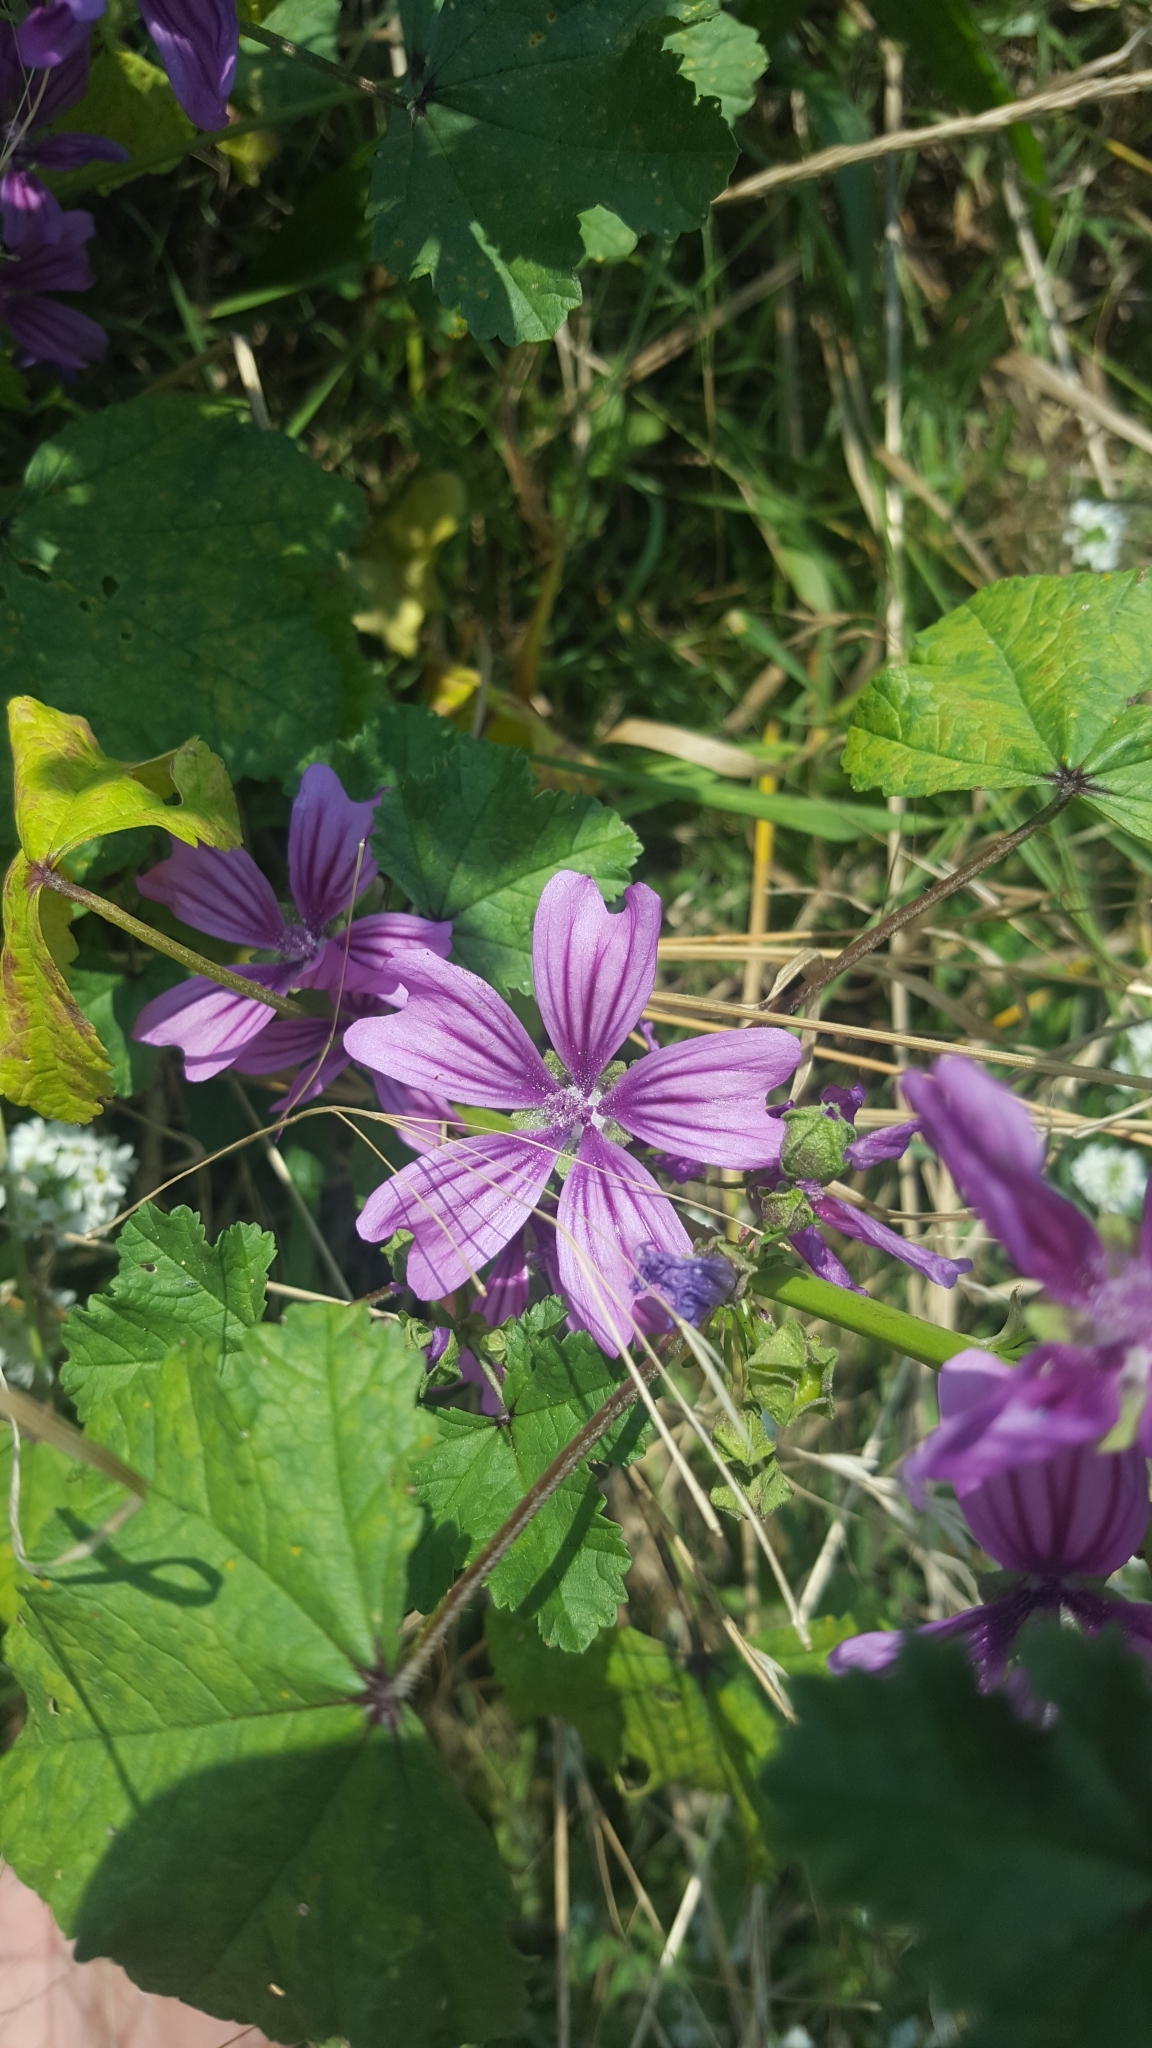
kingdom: Plantae
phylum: Tracheophyta
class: Magnoliopsida
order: Malvales
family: Malvaceae
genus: Malva
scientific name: Malva sylvestris
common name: Common mallow
